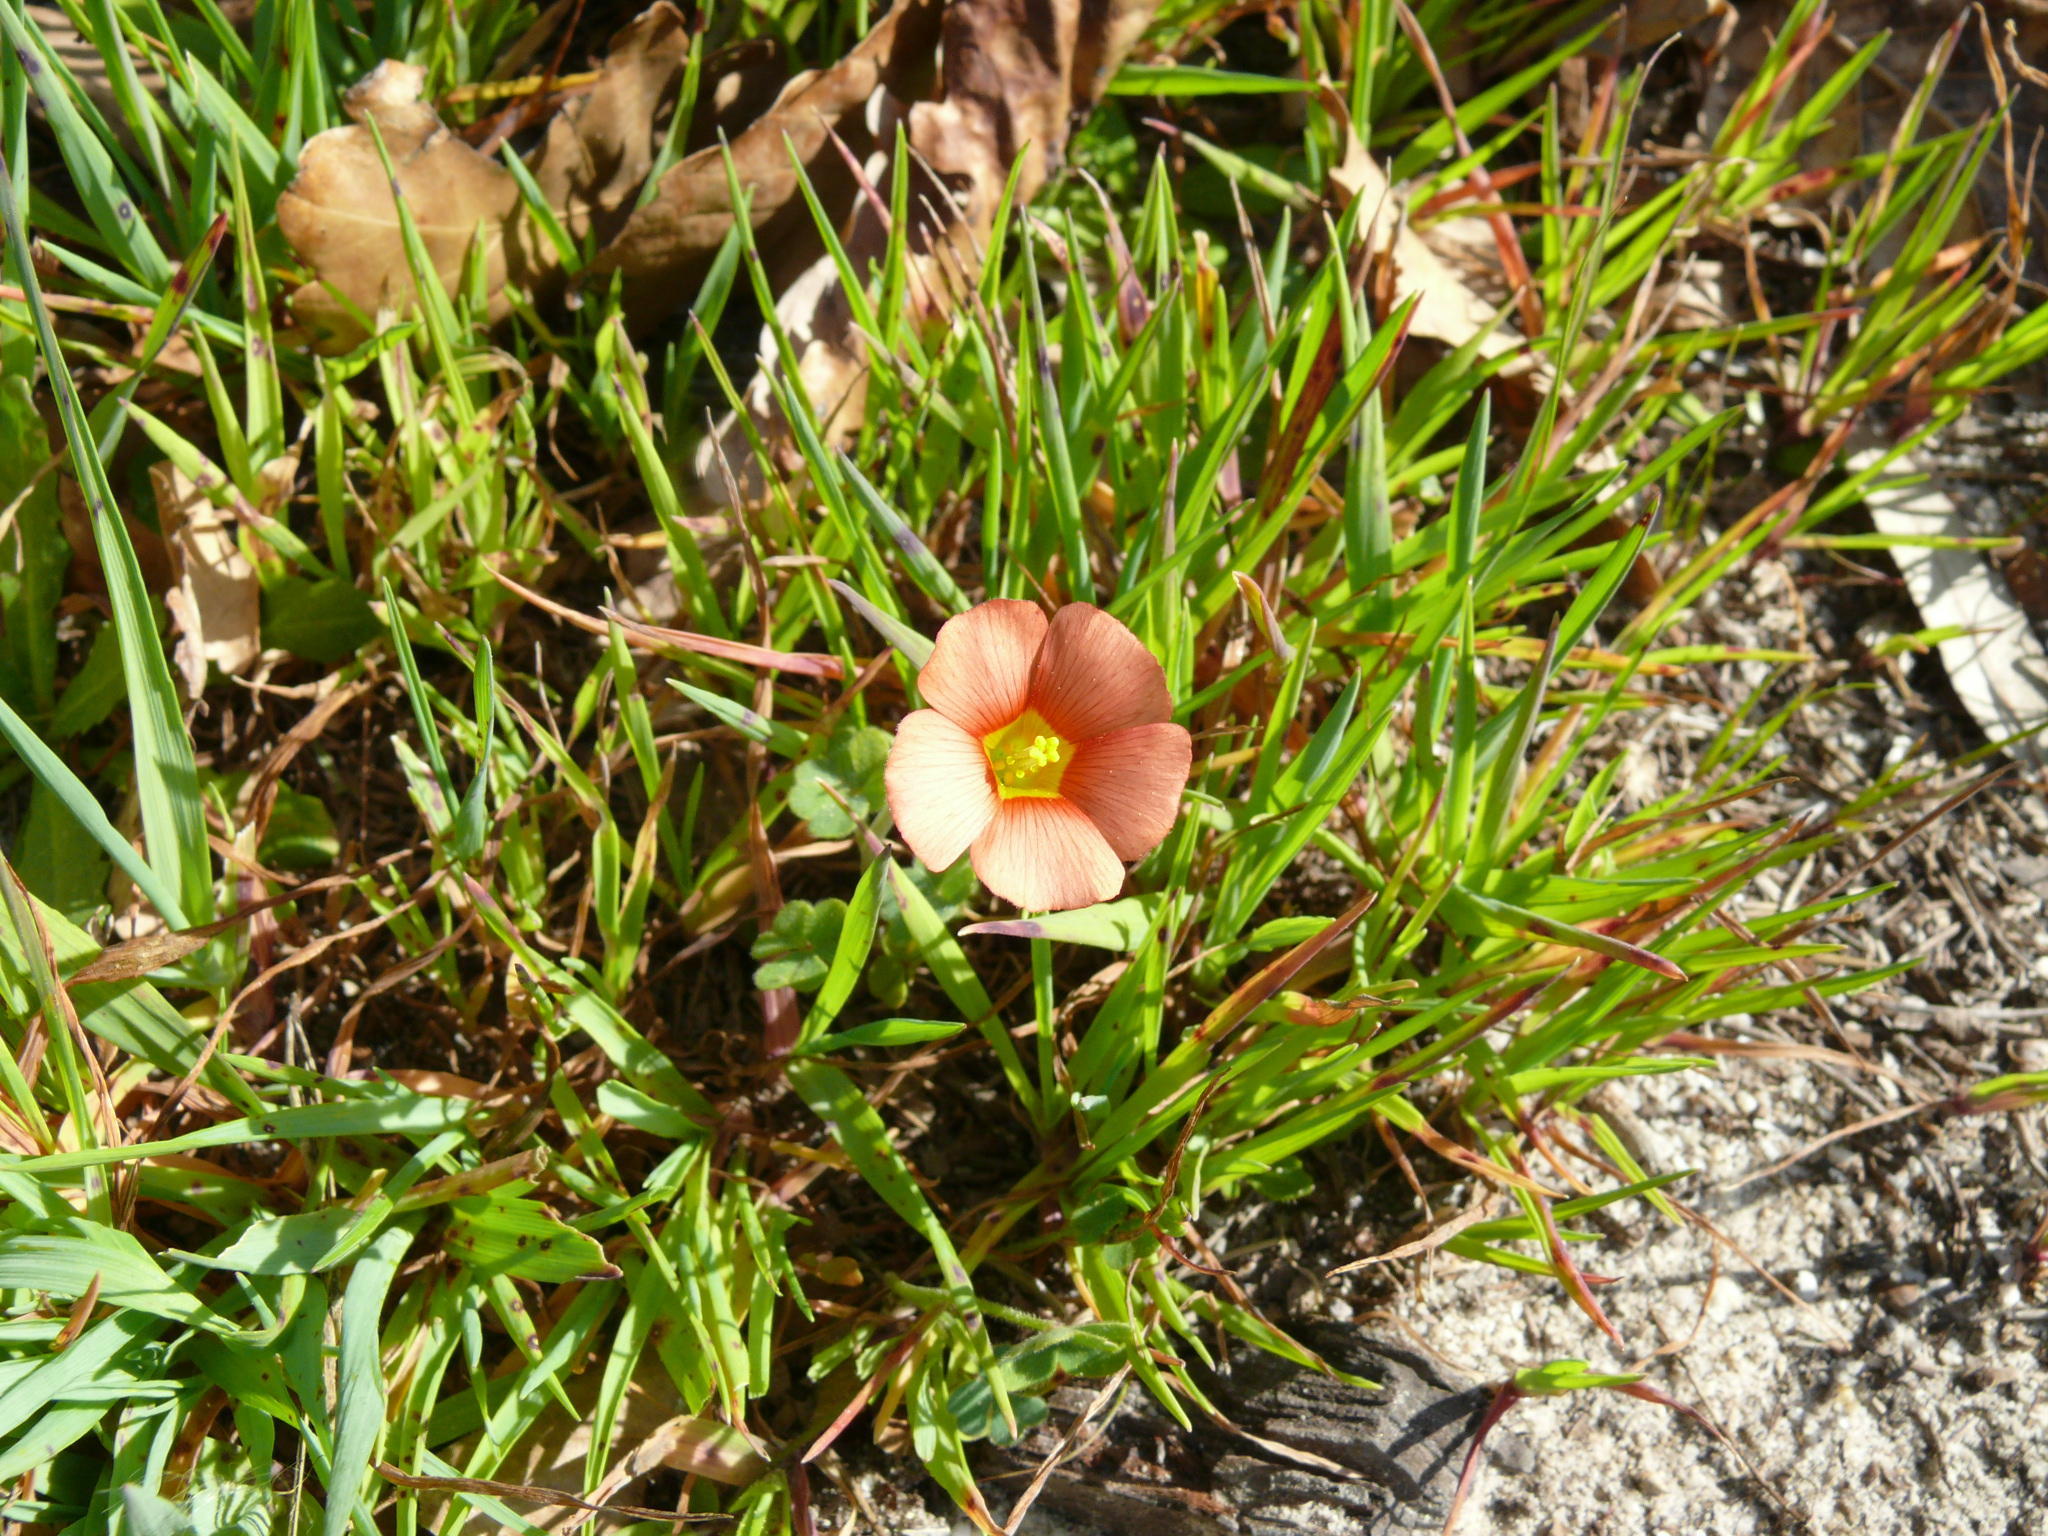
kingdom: Plantae
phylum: Tracheophyta
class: Magnoliopsida
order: Oxalidales
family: Oxalidaceae
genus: Oxalis
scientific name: Oxalis obtusa
